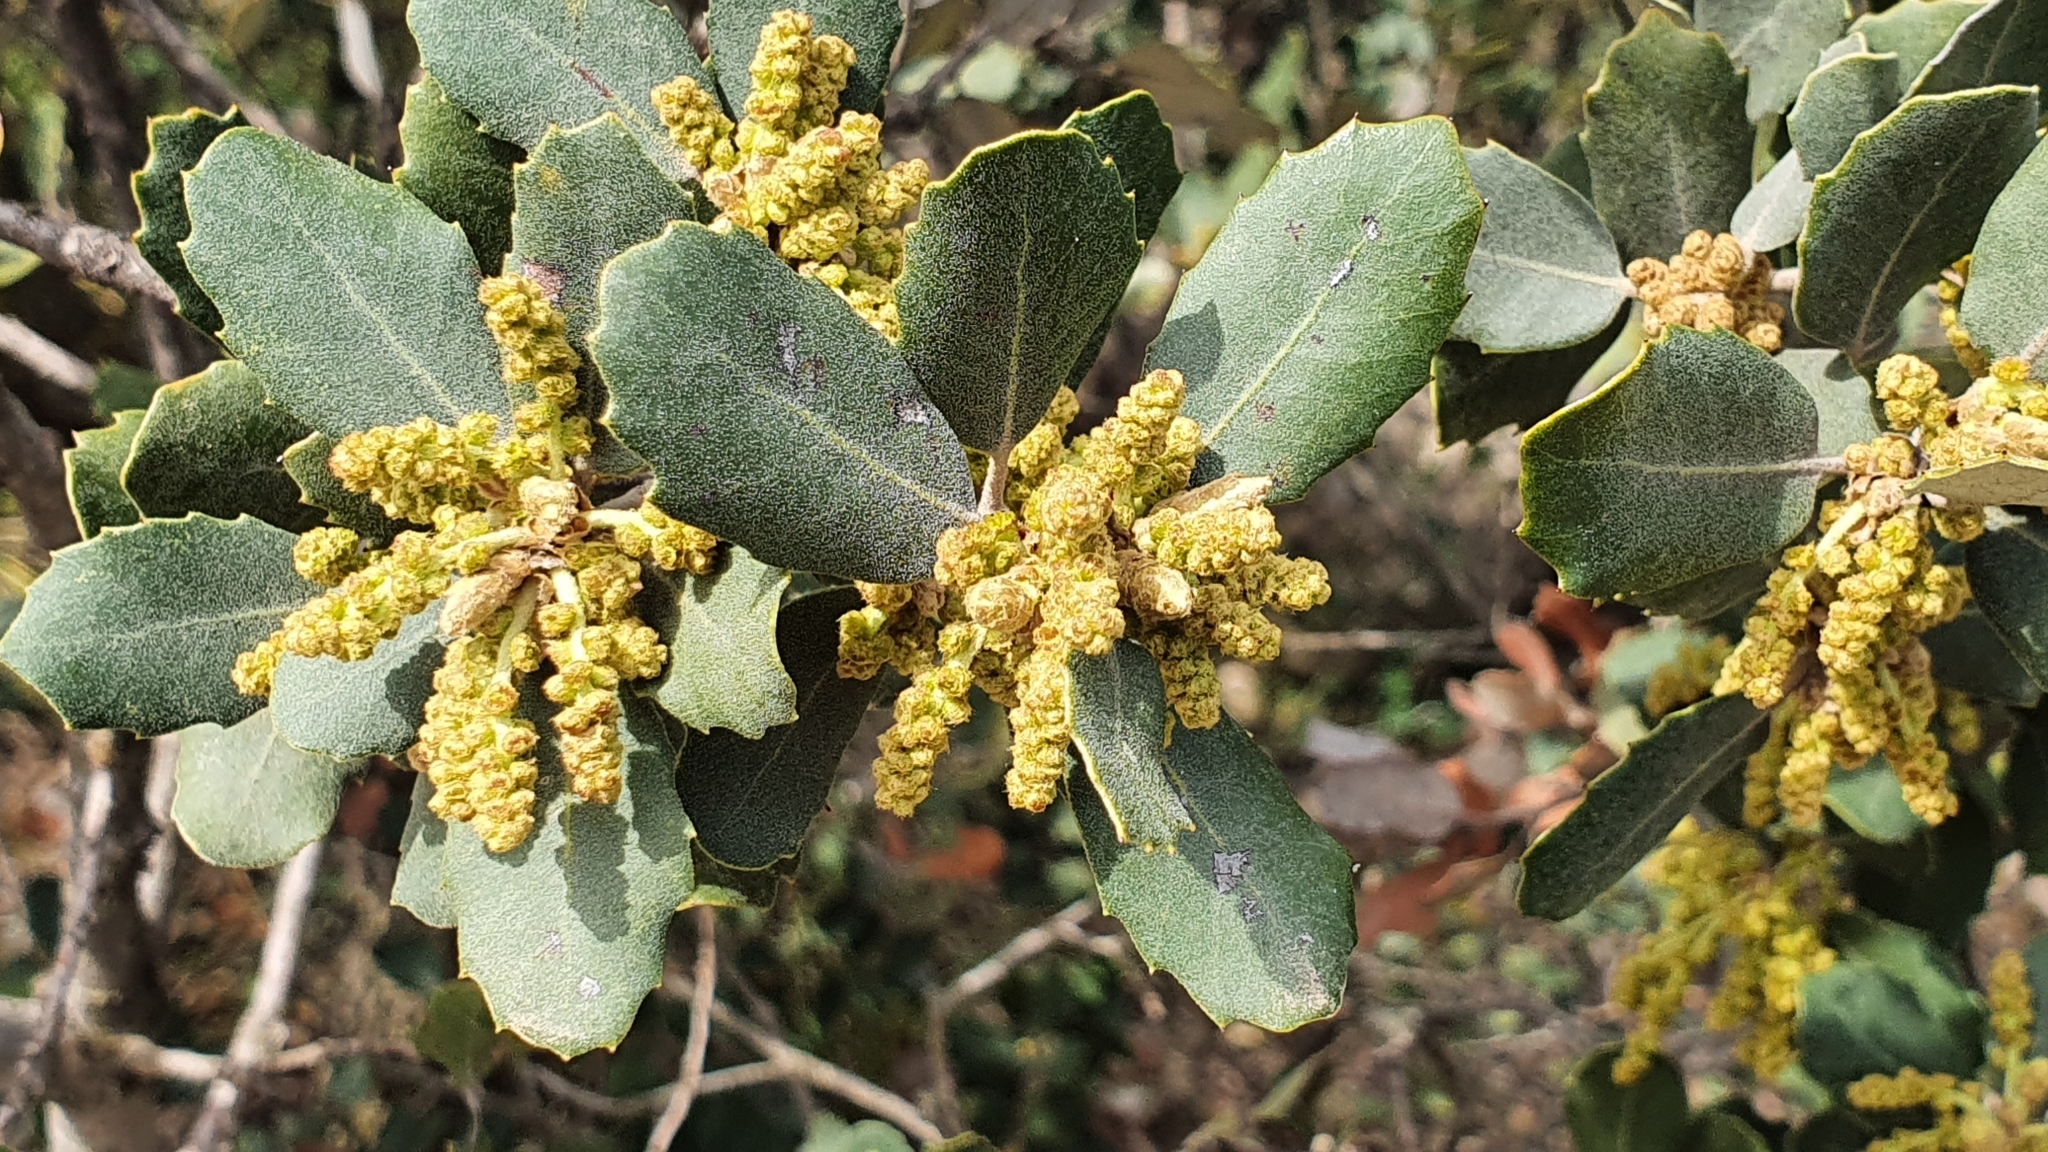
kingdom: Plantae
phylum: Tracheophyta
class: Magnoliopsida
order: Fagales
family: Fagaceae
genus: Quercus
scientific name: Quercus rotundifolia
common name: Holm oak
